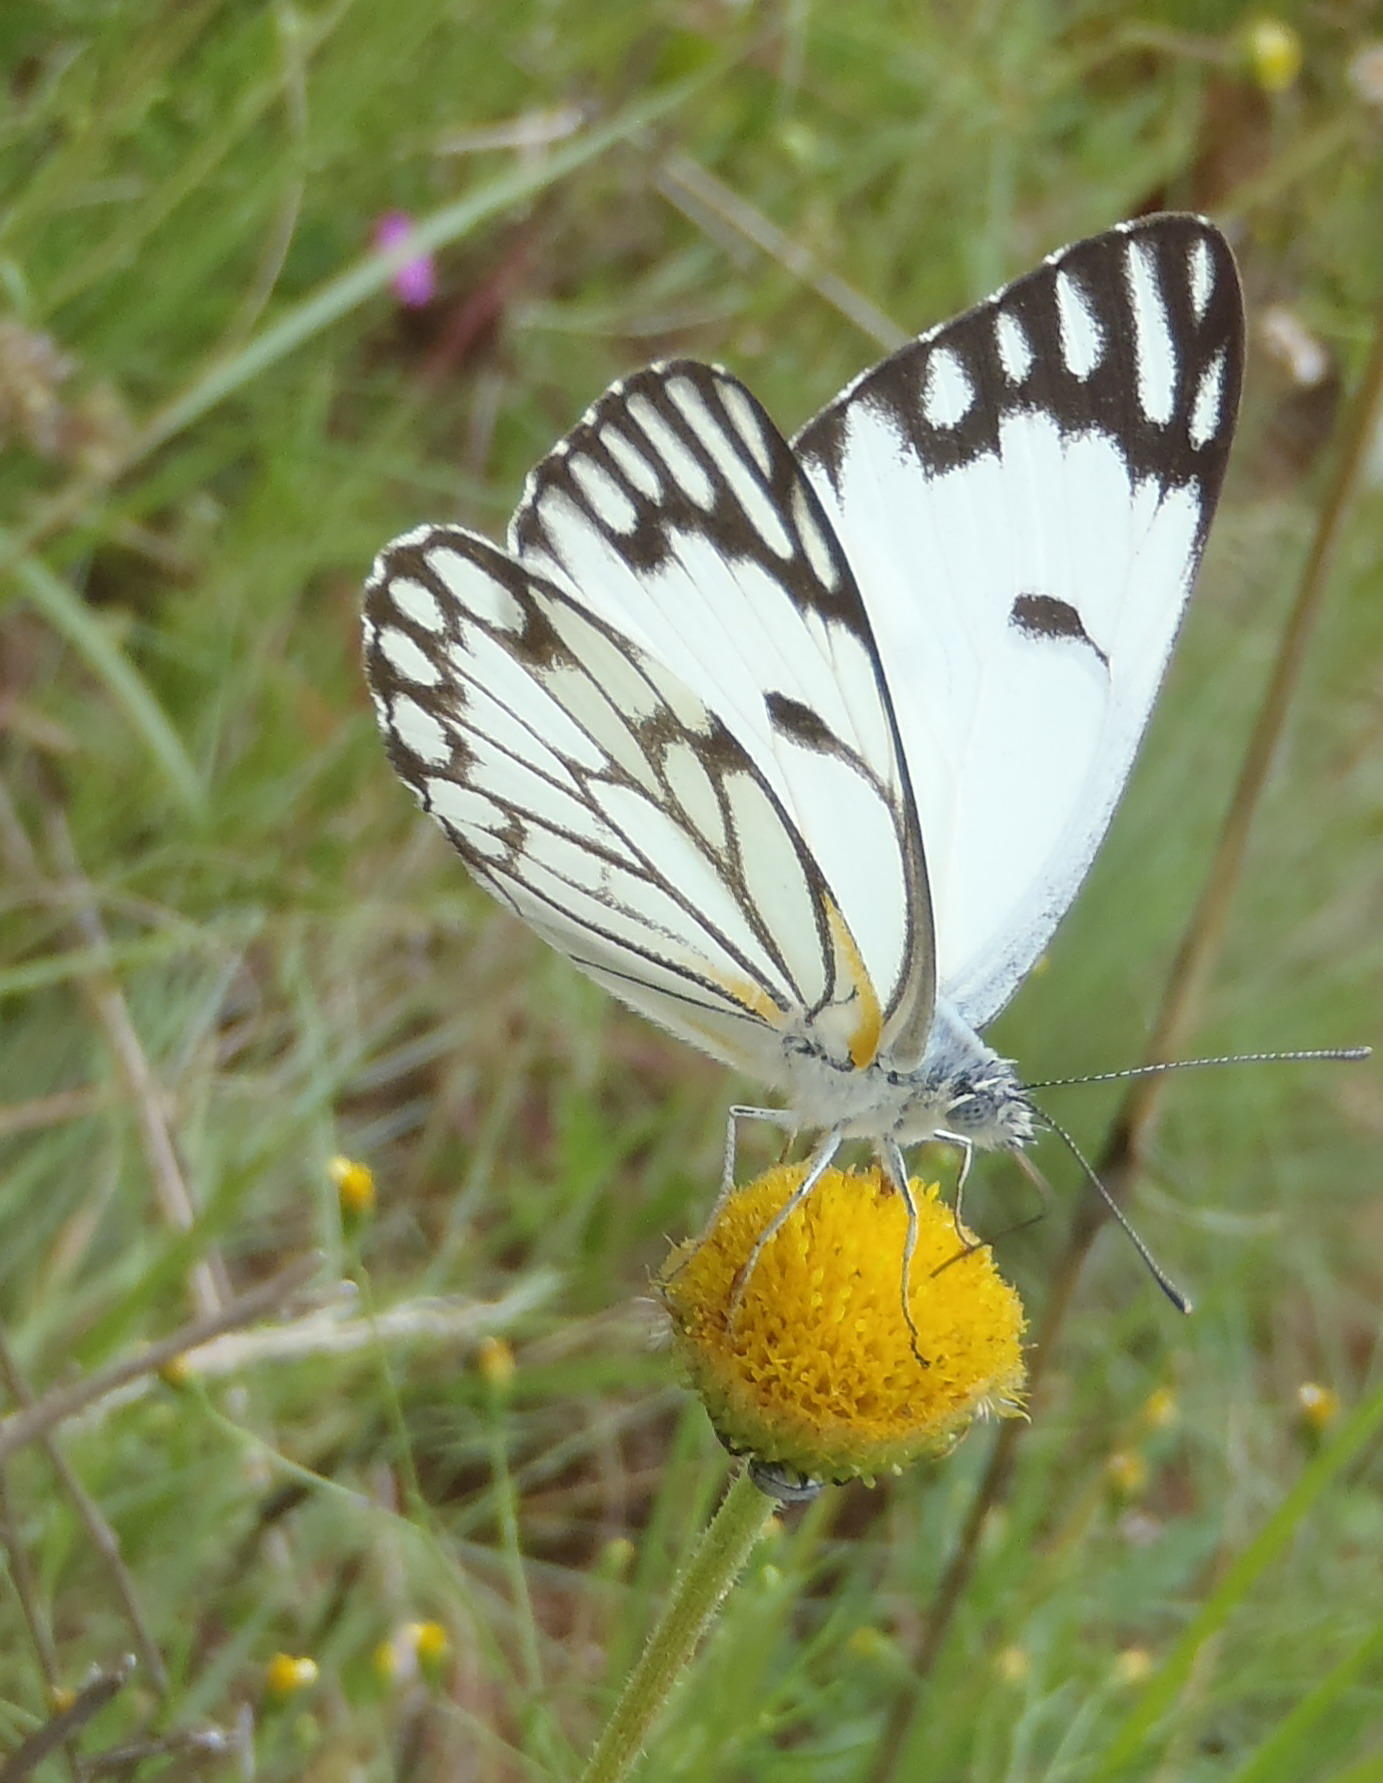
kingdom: Animalia
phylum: Arthropoda
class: Insecta
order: Lepidoptera
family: Pieridae
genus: Belenois
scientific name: Belenois aurota
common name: Brown-veined white
